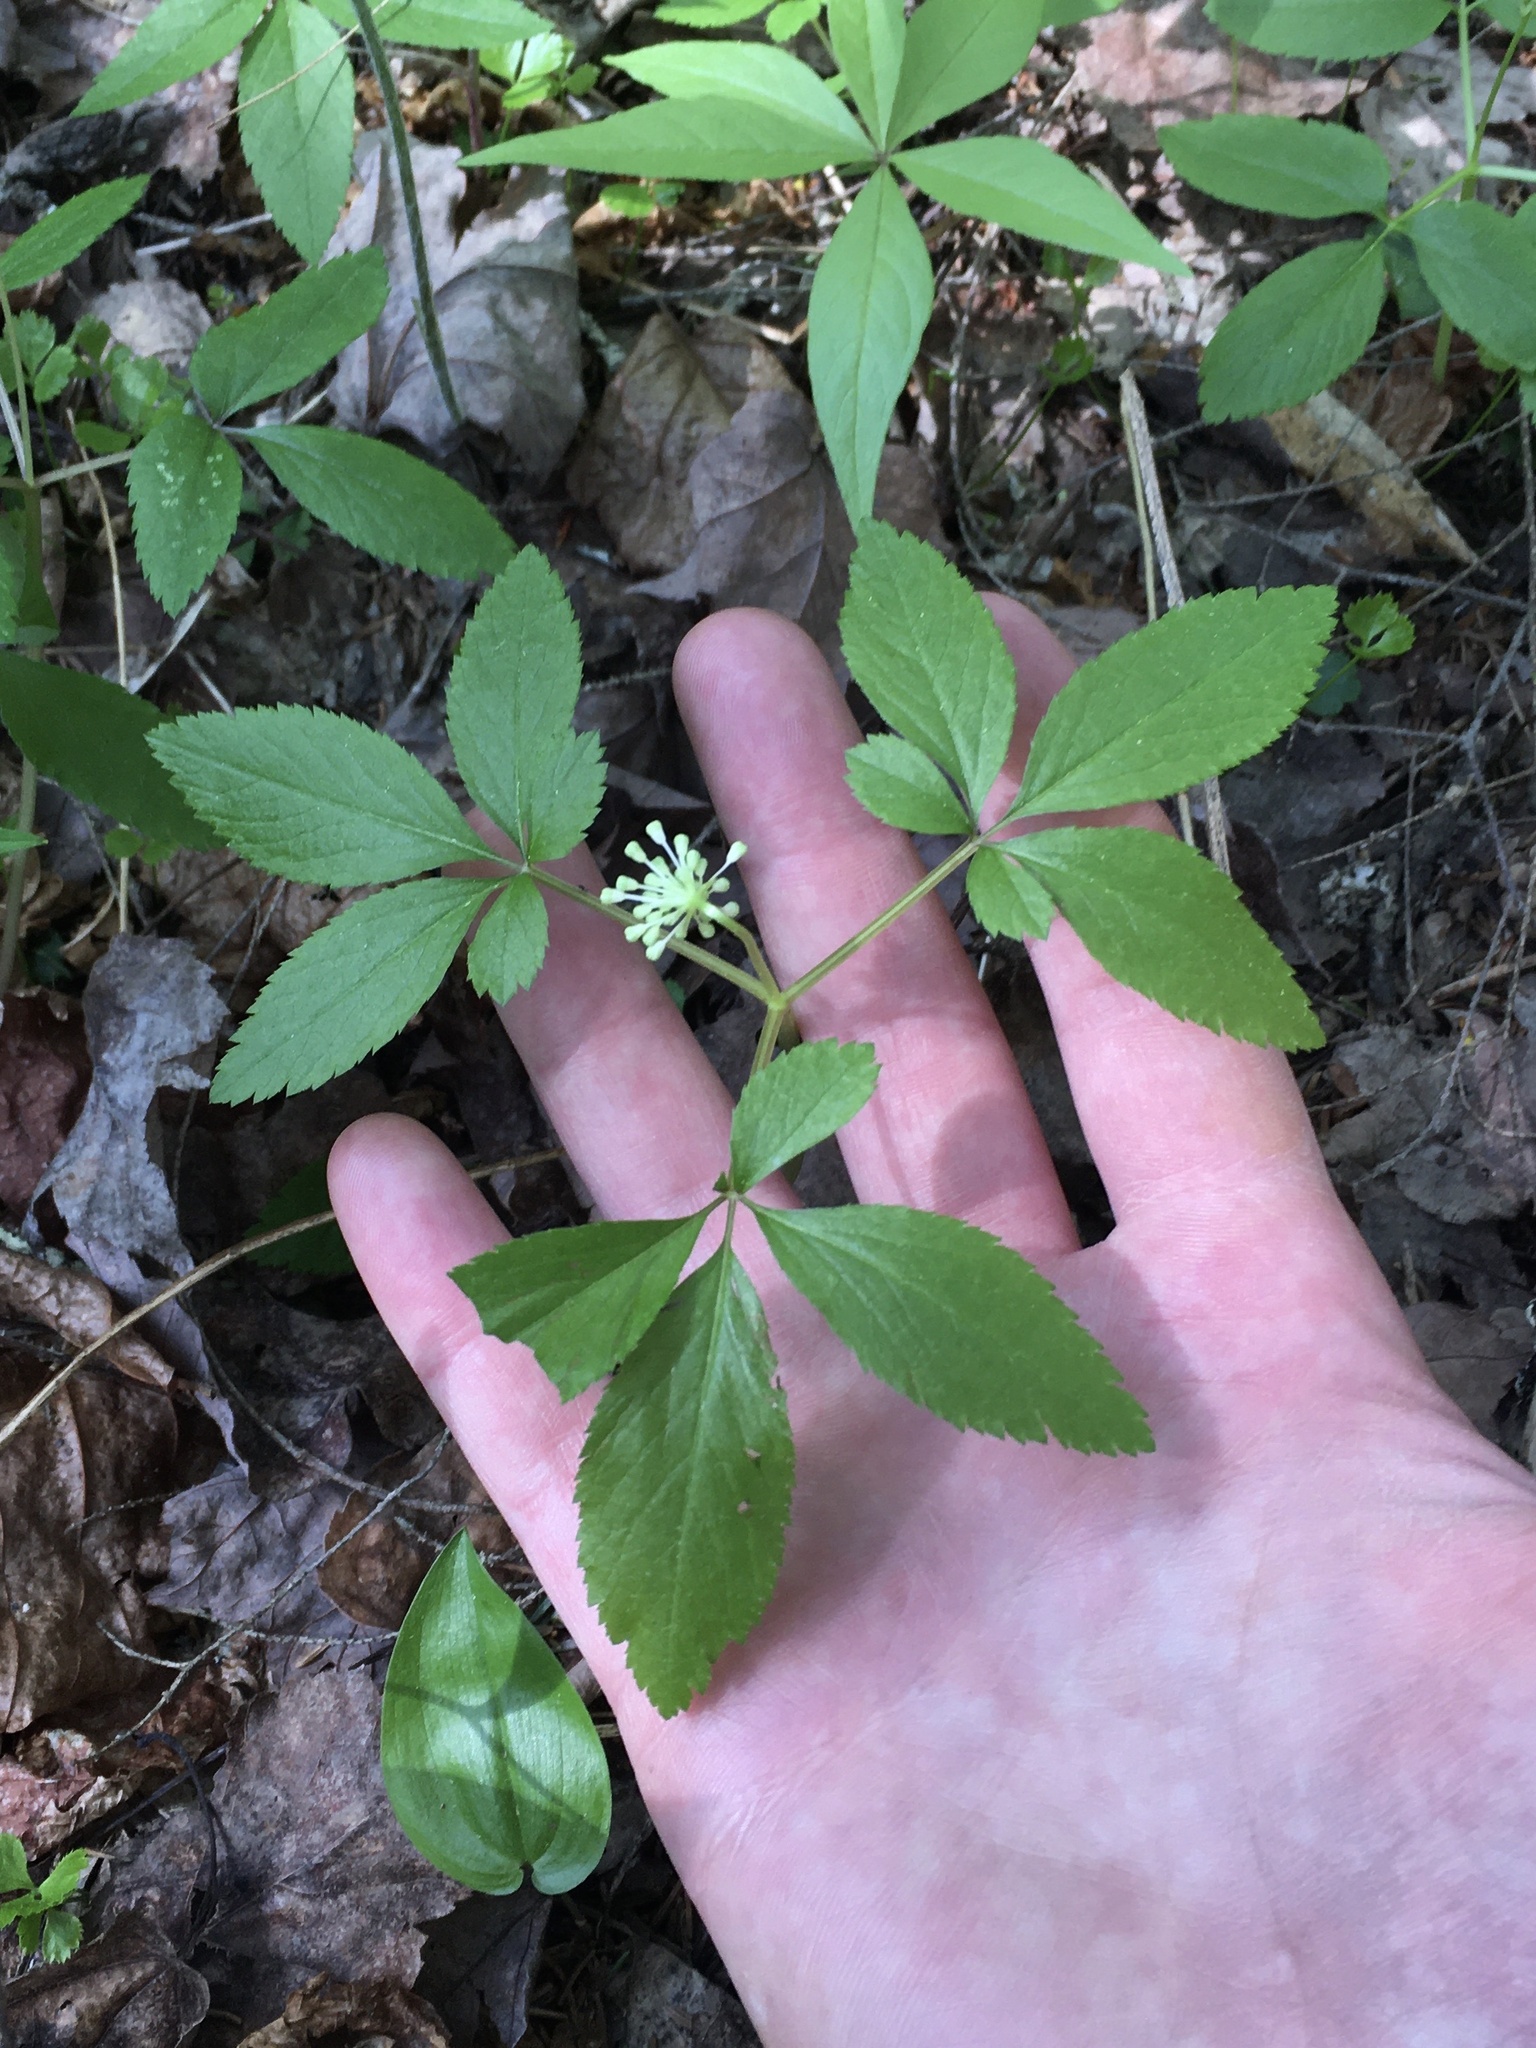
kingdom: Plantae
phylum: Tracheophyta
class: Magnoliopsida
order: Apiales
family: Araliaceae
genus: Panax
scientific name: Panax trifolius
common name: Dwarf ginseng
